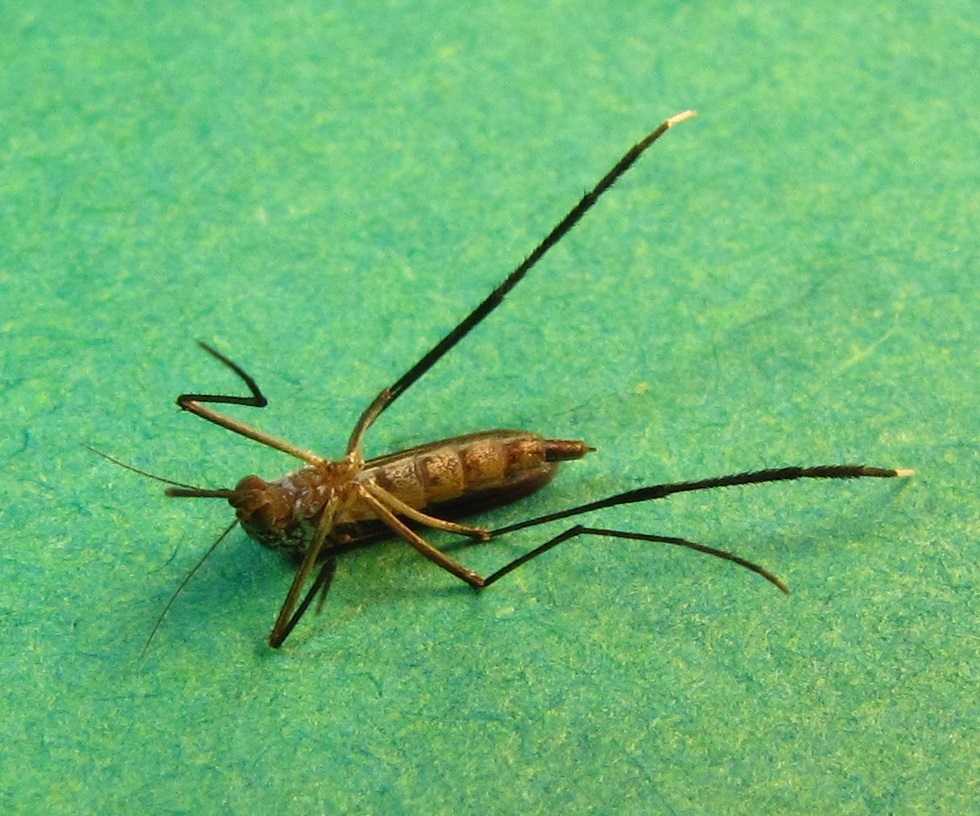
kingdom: Animalia
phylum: Arthropoda
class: Insecta
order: Diptera
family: Culicidae
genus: Psorophora
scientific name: Psorophora ferox
